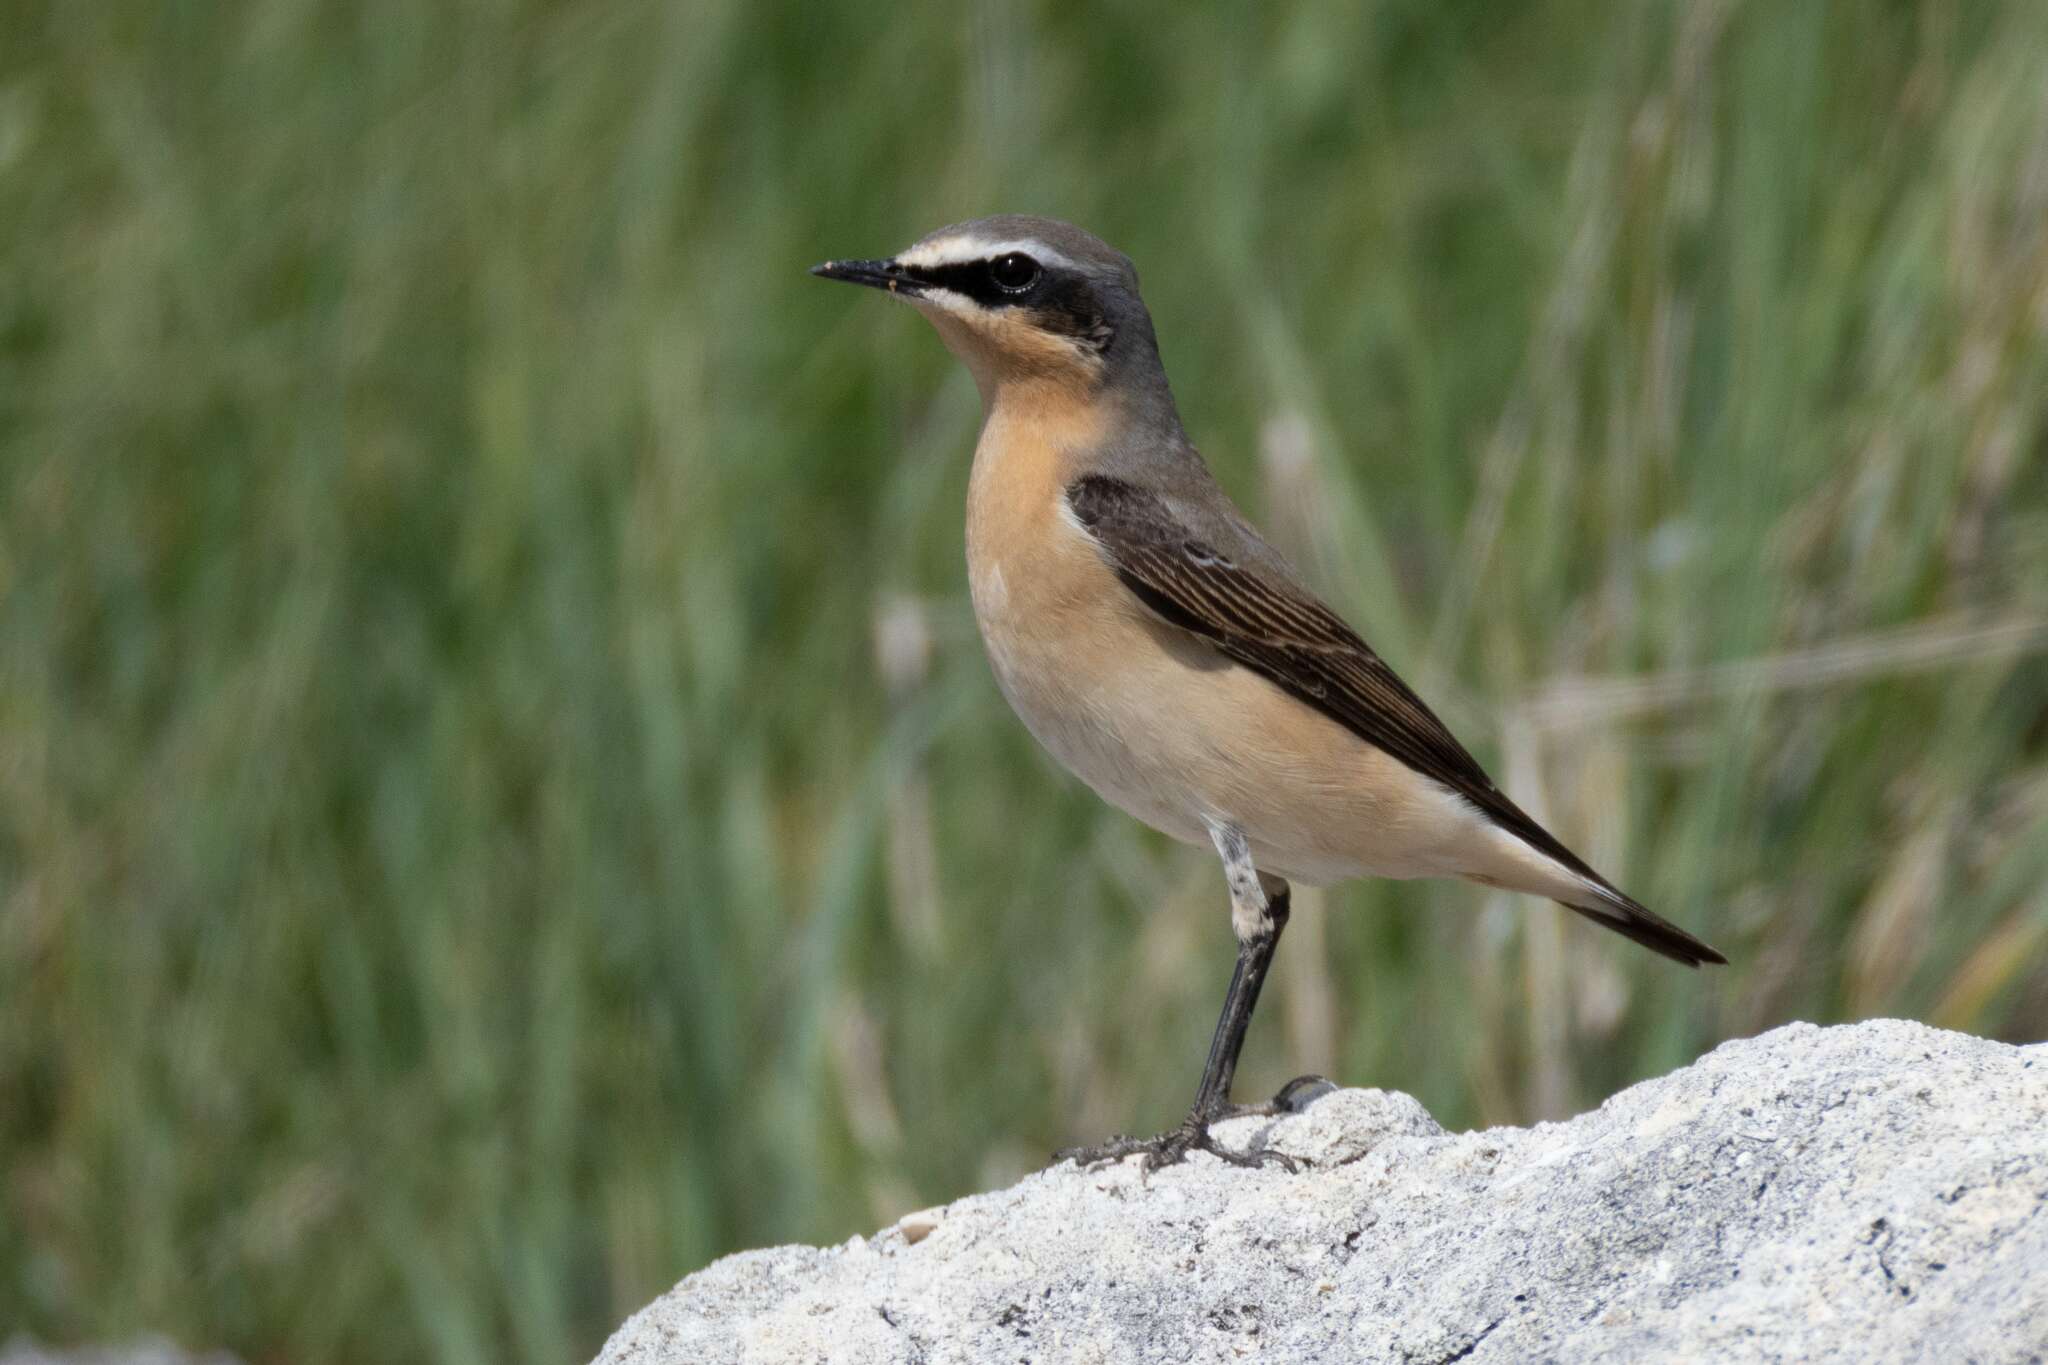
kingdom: Animalia
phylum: Chordata
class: Aves
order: Passeriformes
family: Muscicapidae
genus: Oenanthe
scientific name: Oenanthe oenanthe
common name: Northern wheatear
